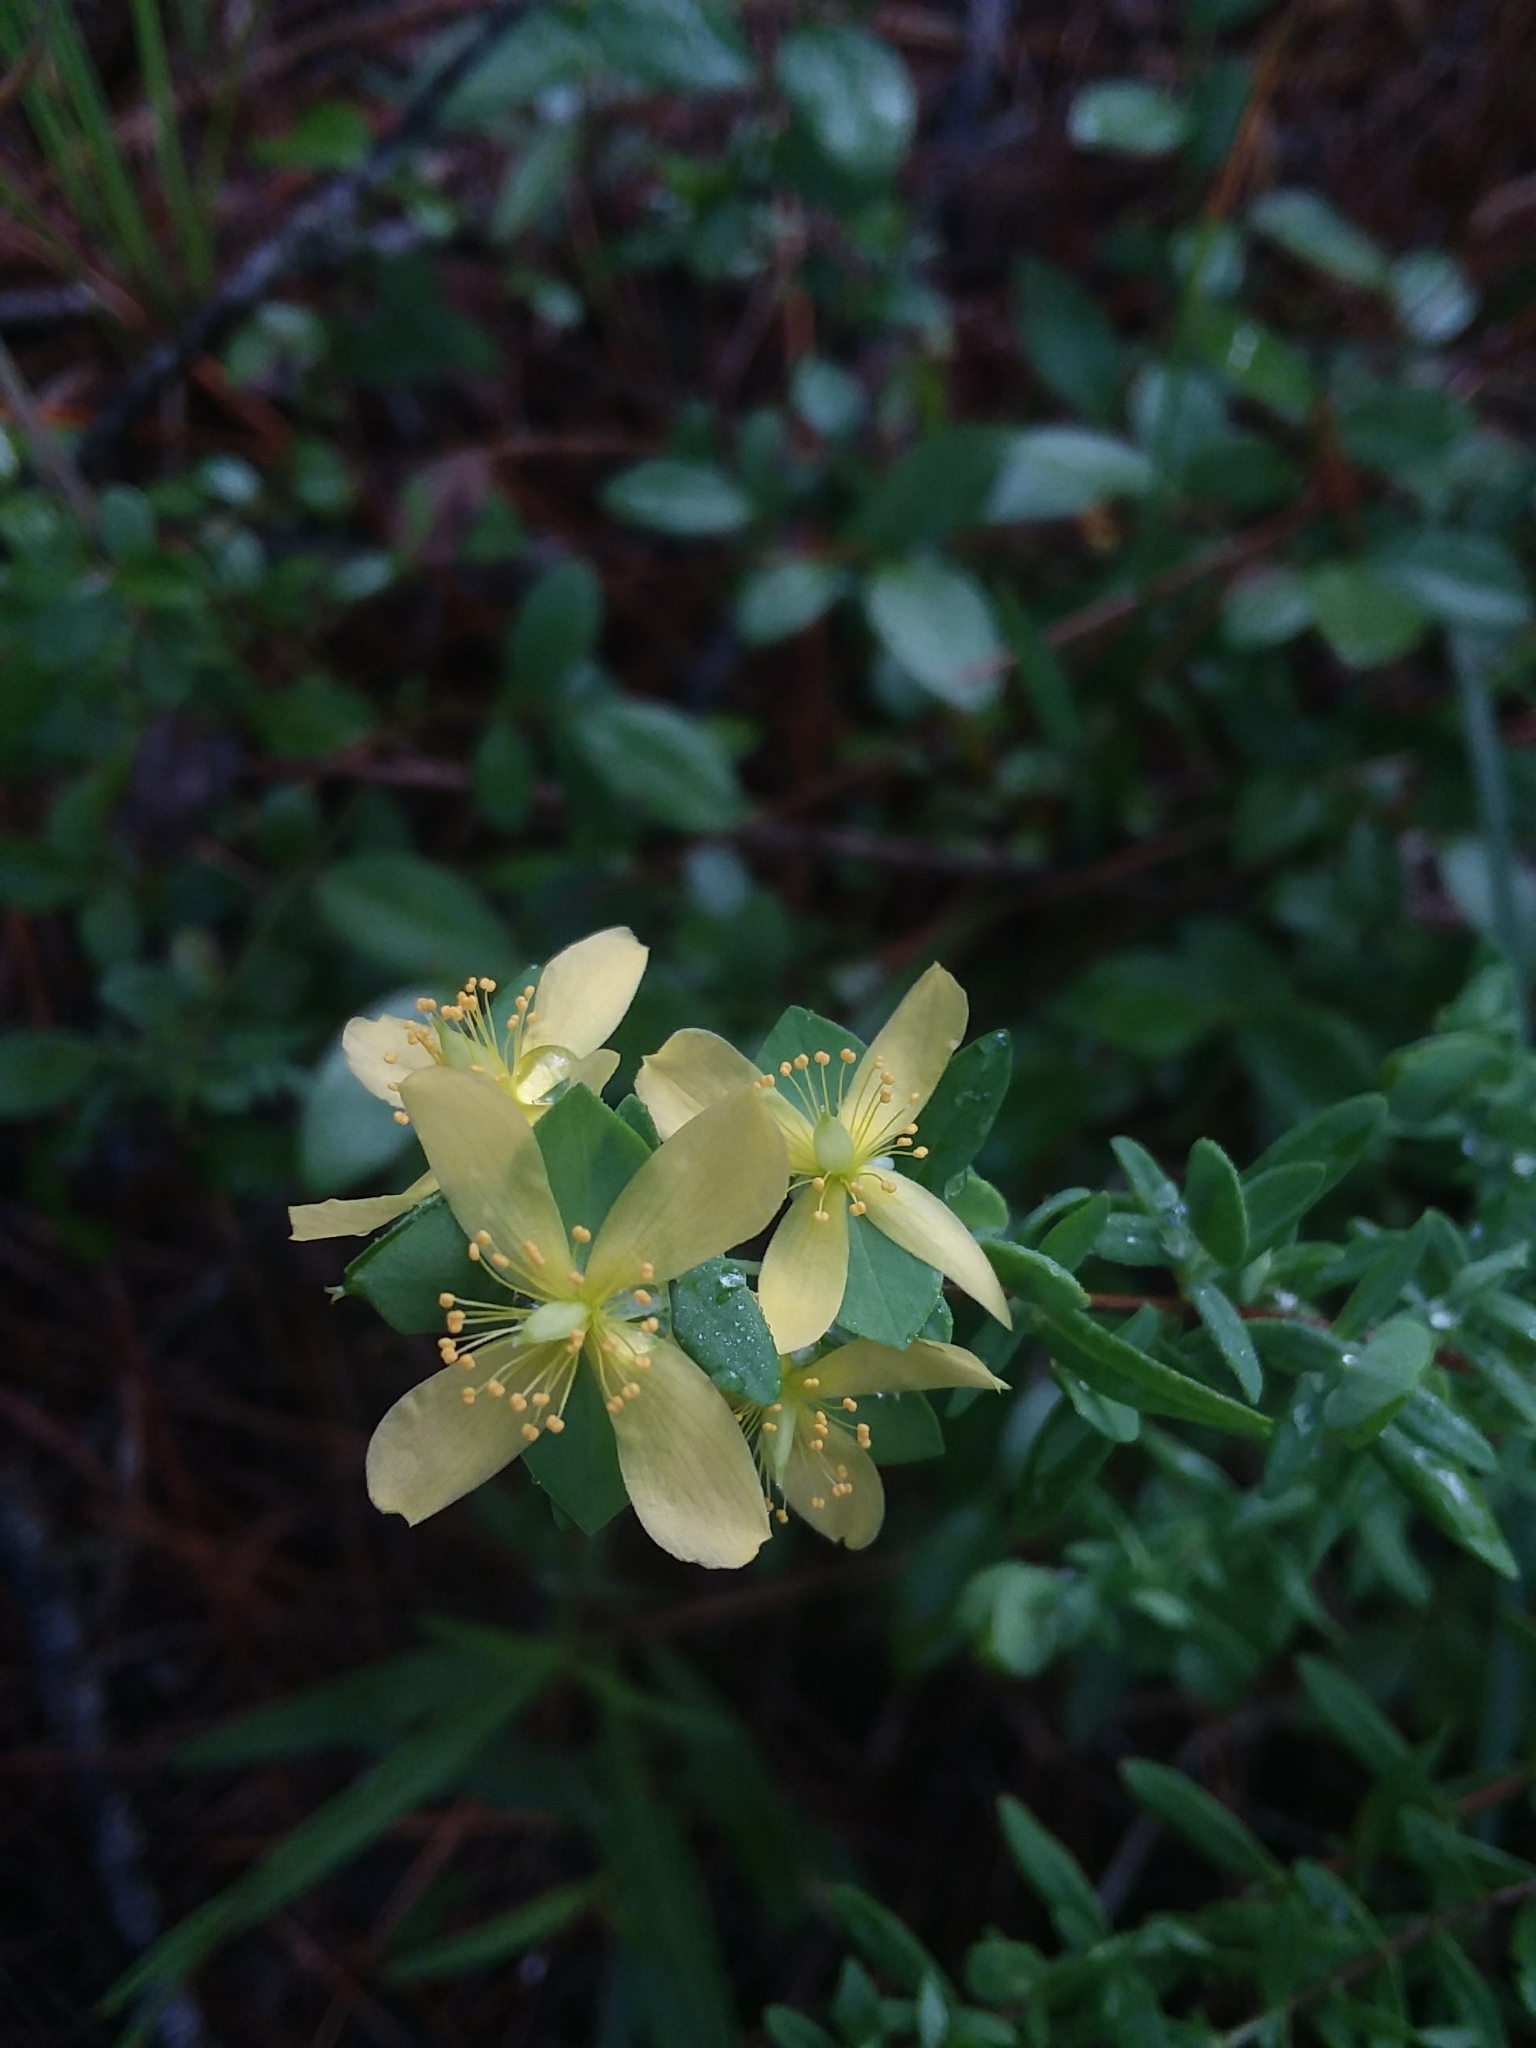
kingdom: Plantae
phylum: Tracheophyta
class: Magnoliopsida
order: Malpighiales
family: Hypericaceae
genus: Hypericum
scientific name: Hypericum hypericoides
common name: St. andrew's cross
